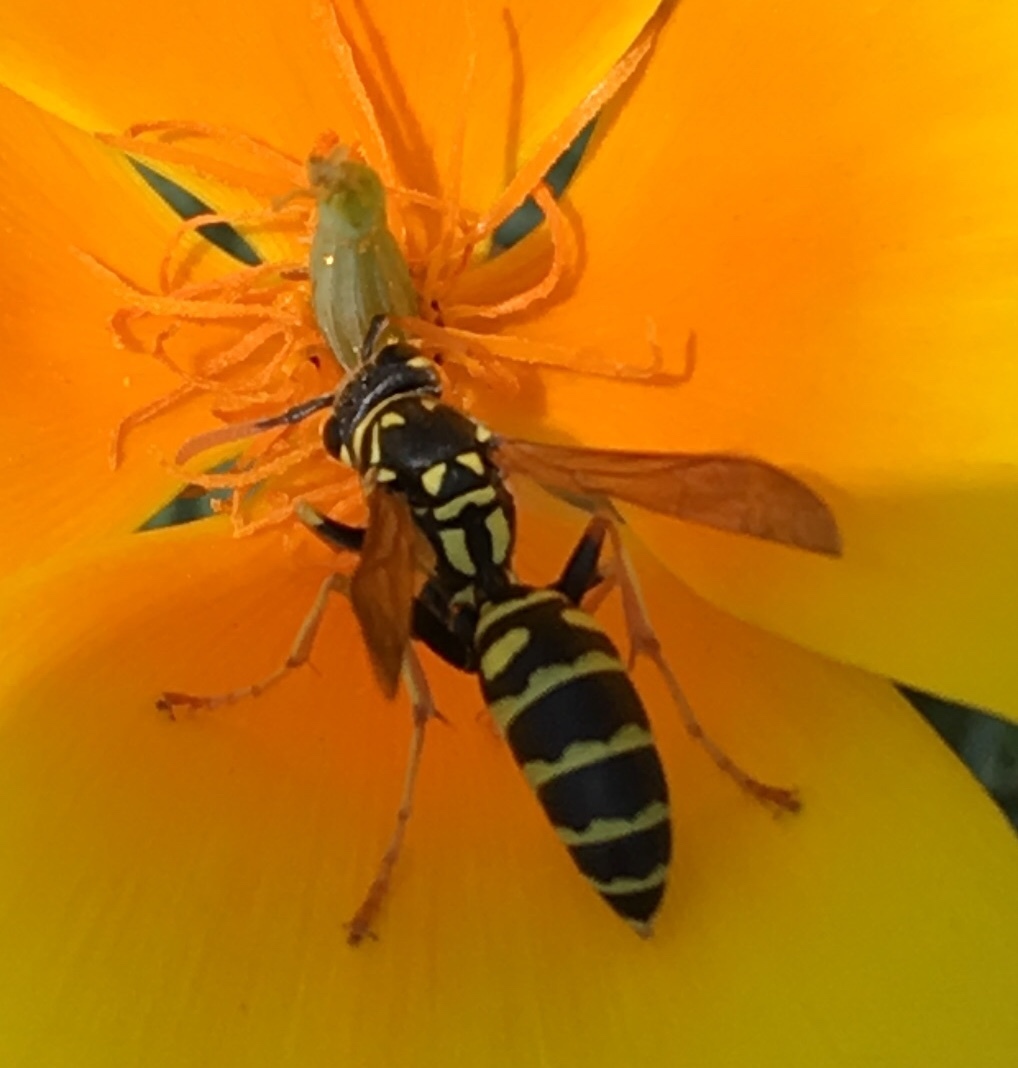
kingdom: Animalia
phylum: Arthropoda
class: Insecta
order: Hymenoptera
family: Eumenidae
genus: Polistes
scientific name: Polistes dominula
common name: Paper wasp
